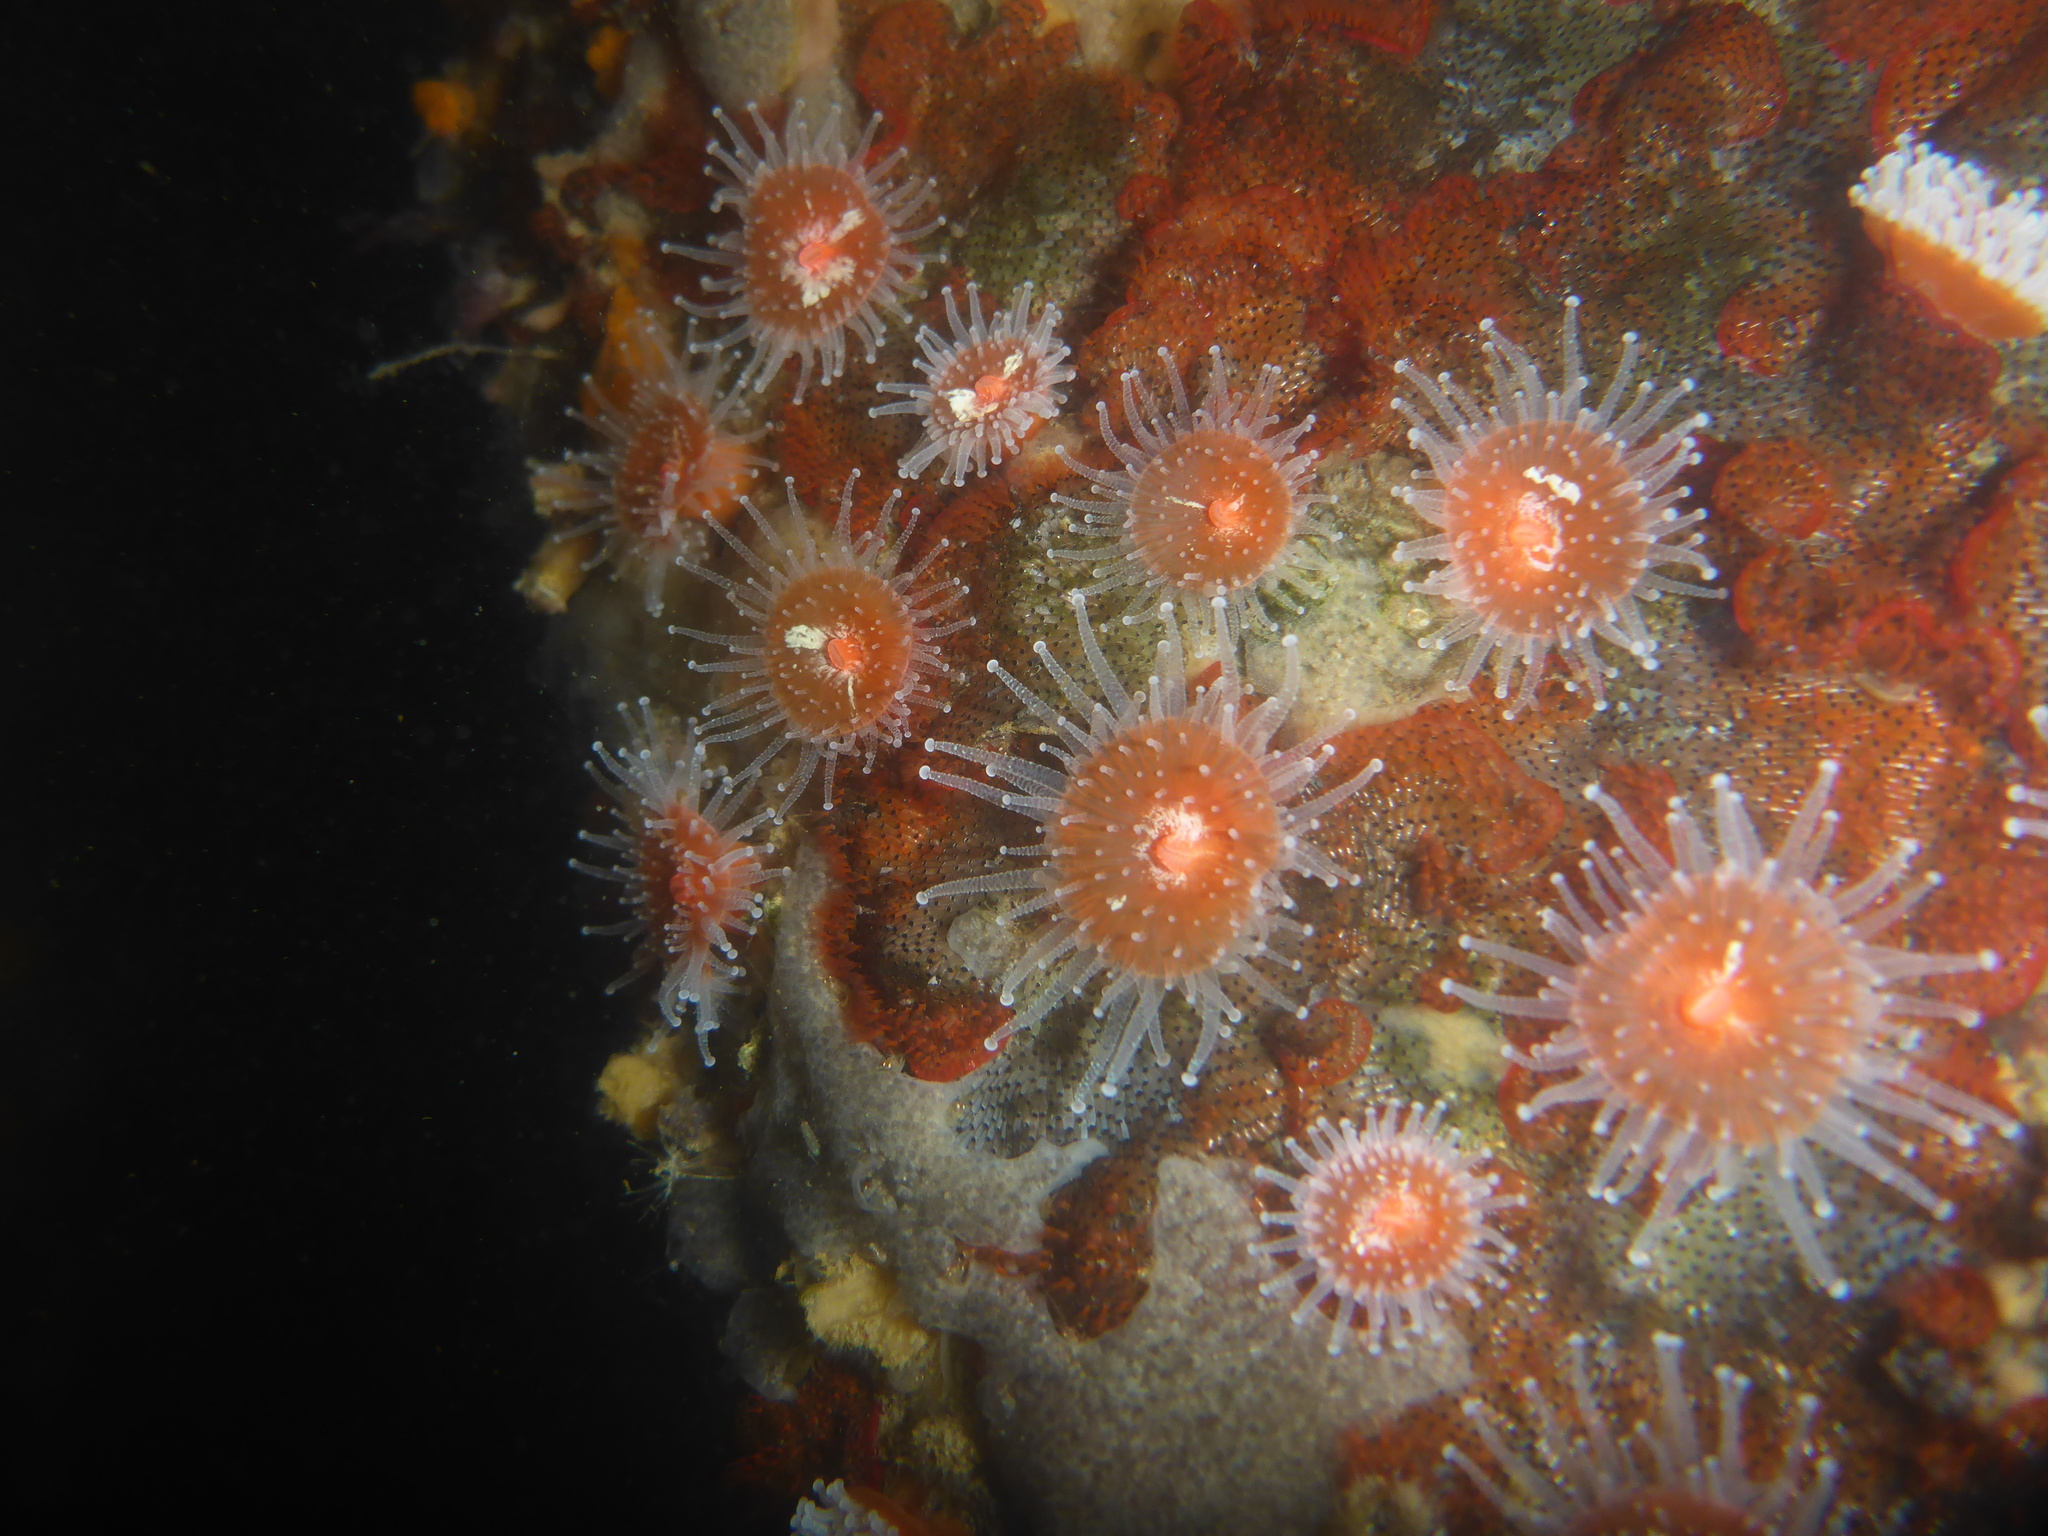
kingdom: Animalia
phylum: Cnidaria
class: Anthozoa
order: Corallimorpharia
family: Corallimorphidae
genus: Corynactis
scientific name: Corynactis californica
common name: Strawberry corallimorpharian
